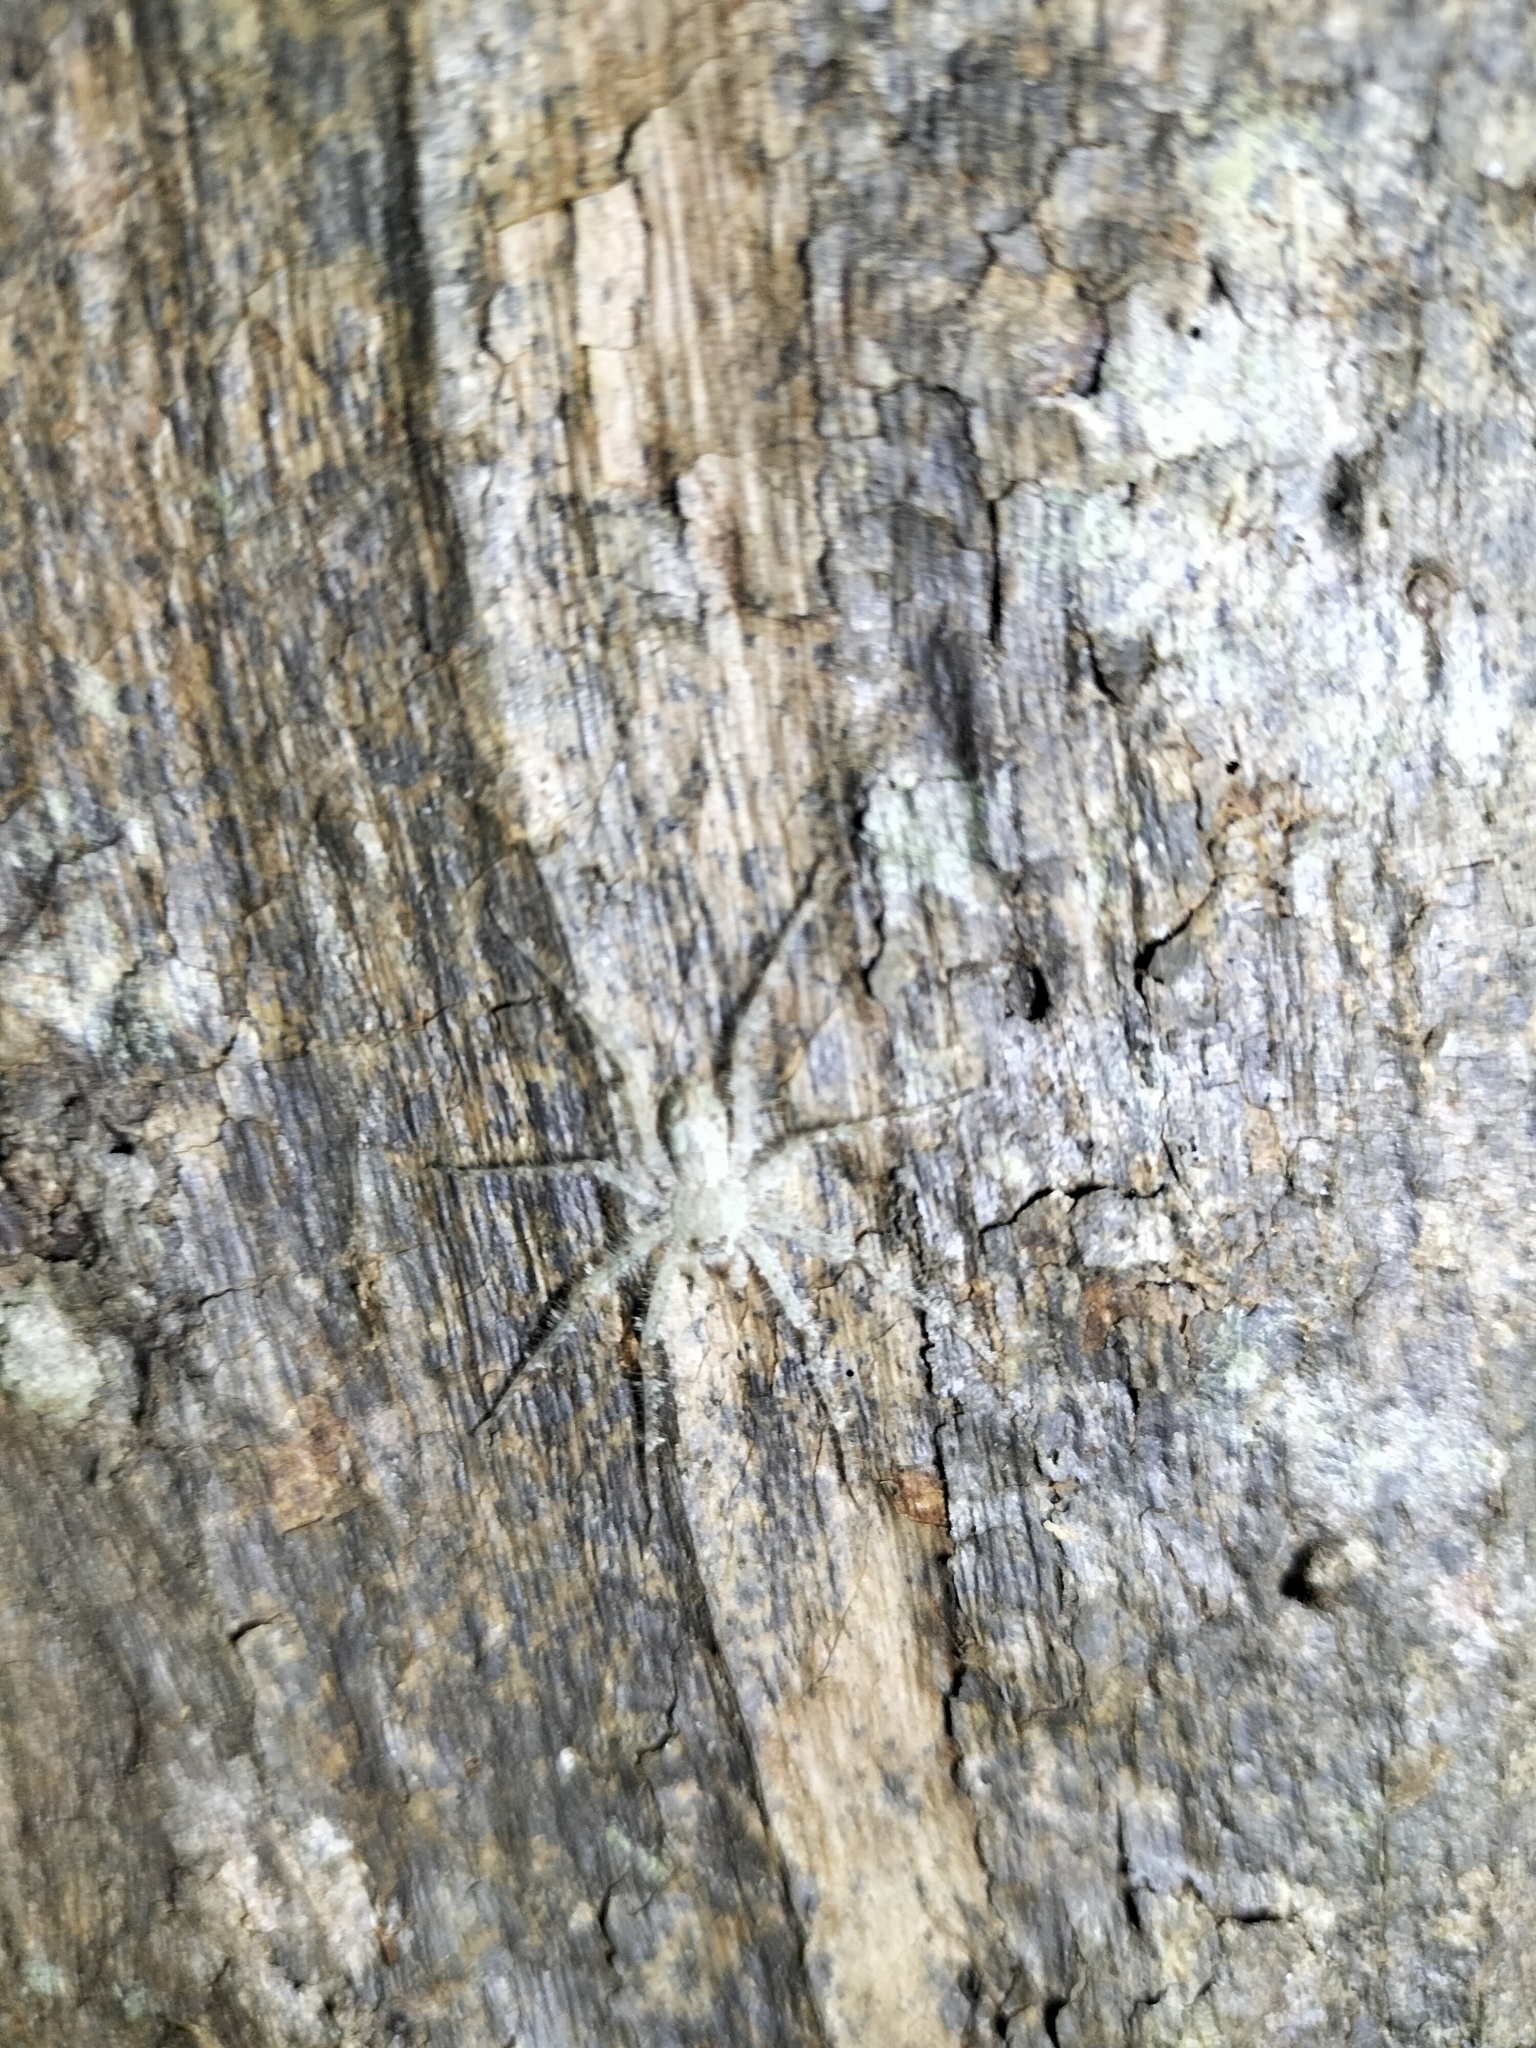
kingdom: Animalia
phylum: Arthropoda
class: Arachnida
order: Araneae
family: Sparassidae
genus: Pandercetes
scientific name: Pandercetes gracilis
